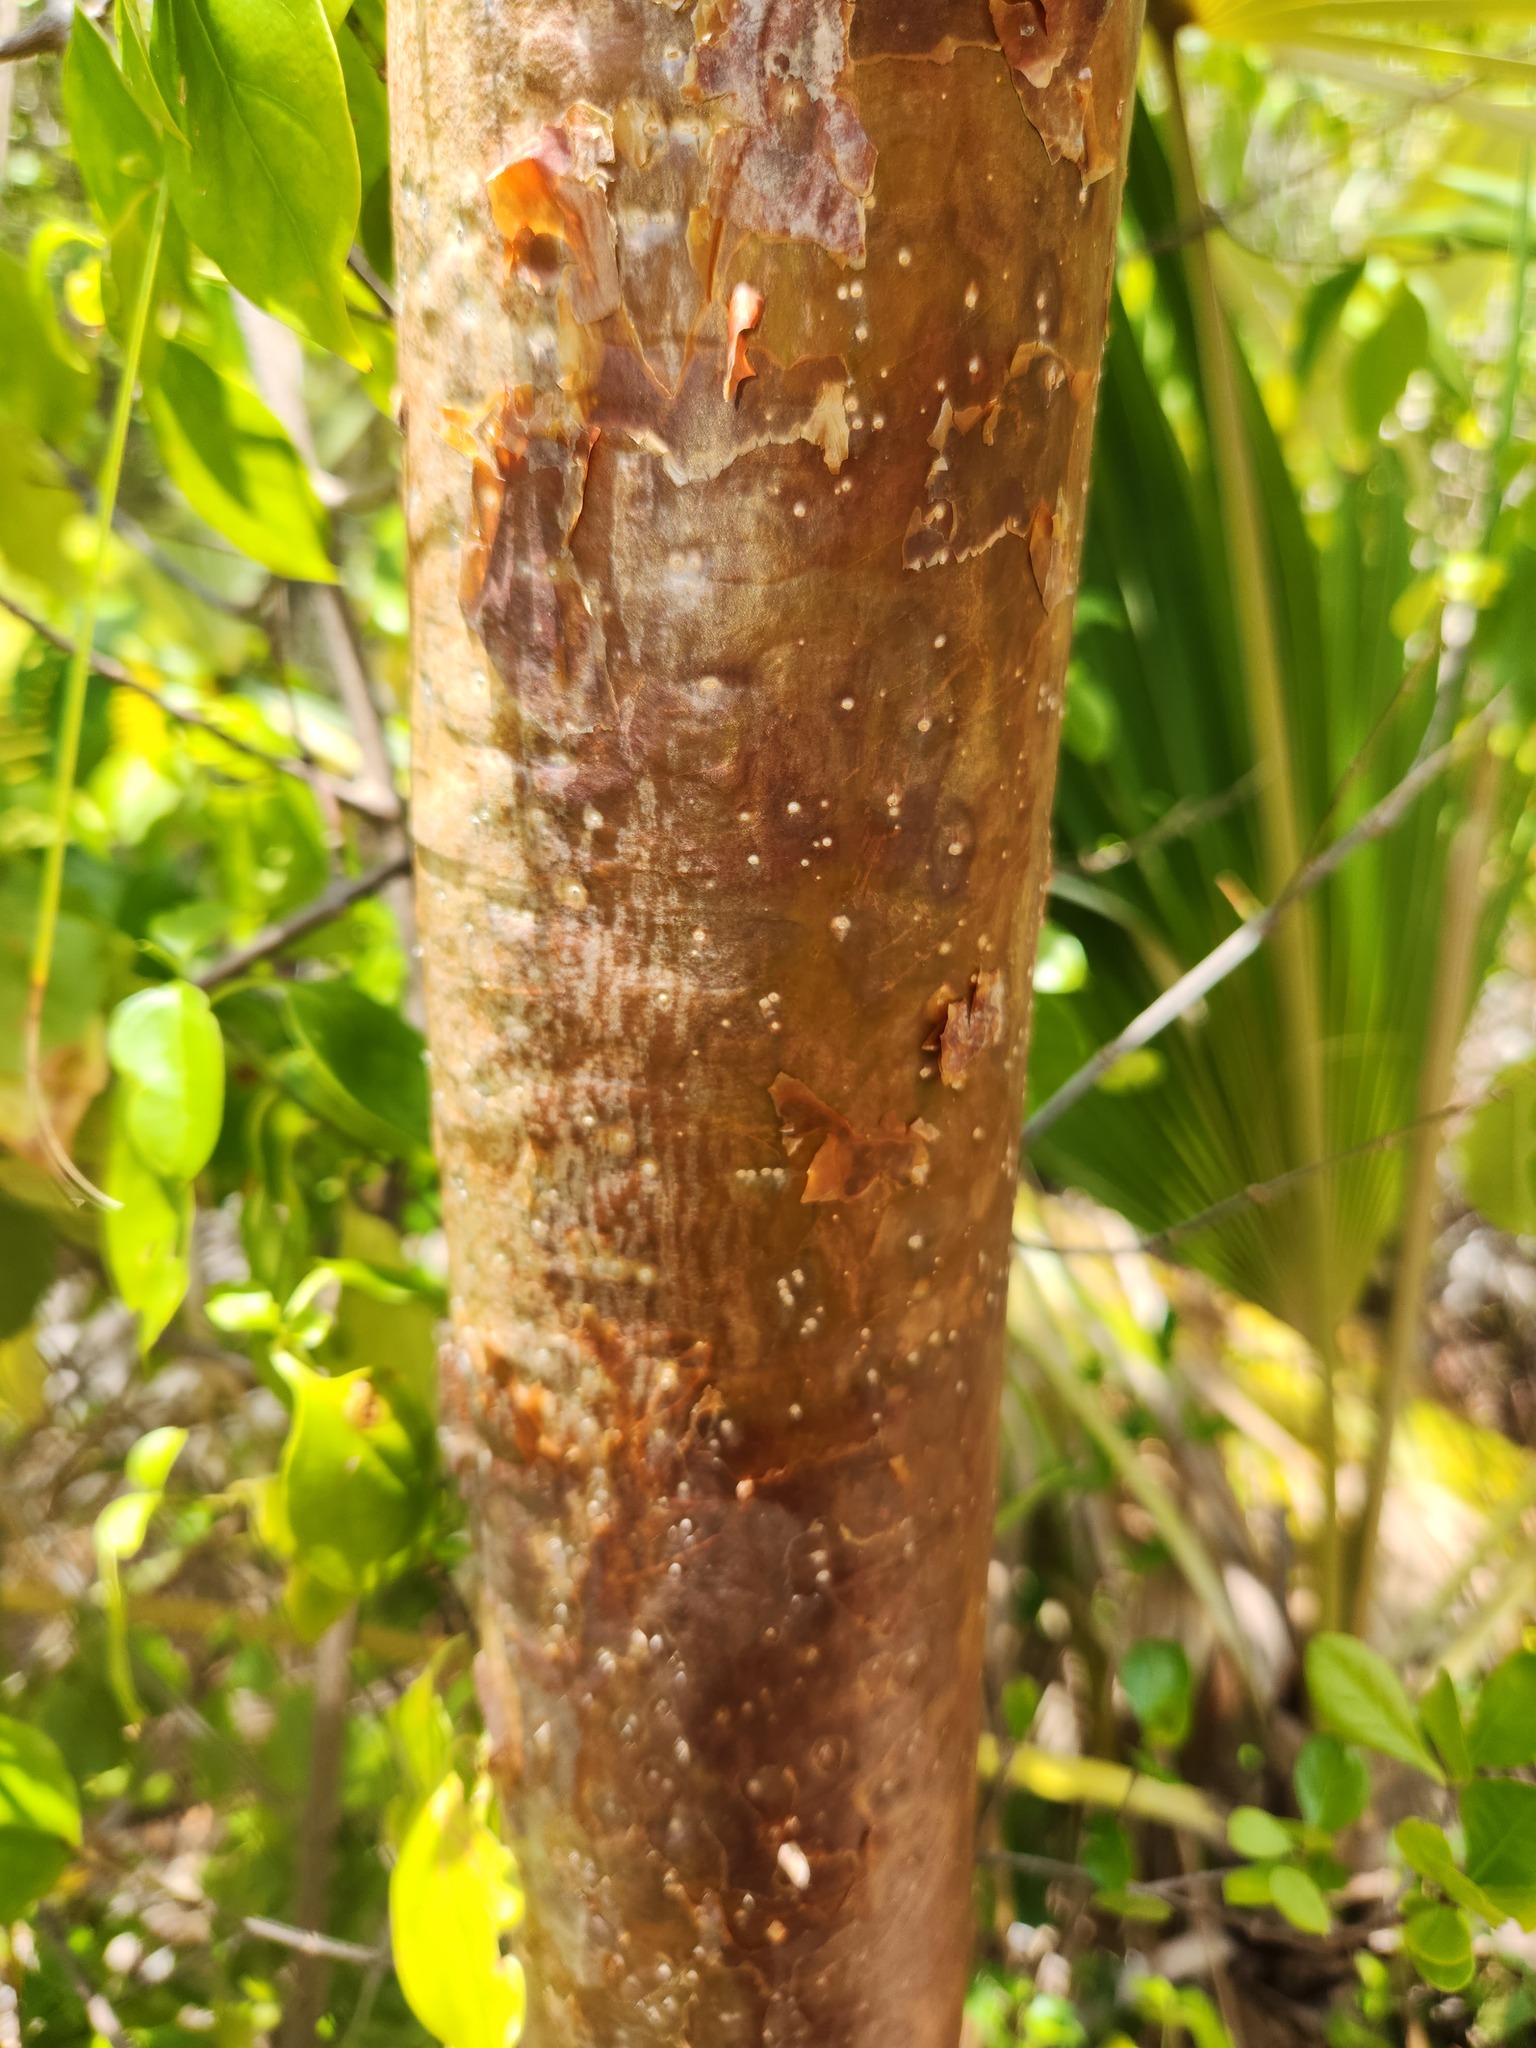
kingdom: Plantae
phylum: Tracheophyta
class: Magnoliopsida
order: Sapindales
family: Burseraceae
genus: Bursera
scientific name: Bursera simaruba
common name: Turpentine tree
